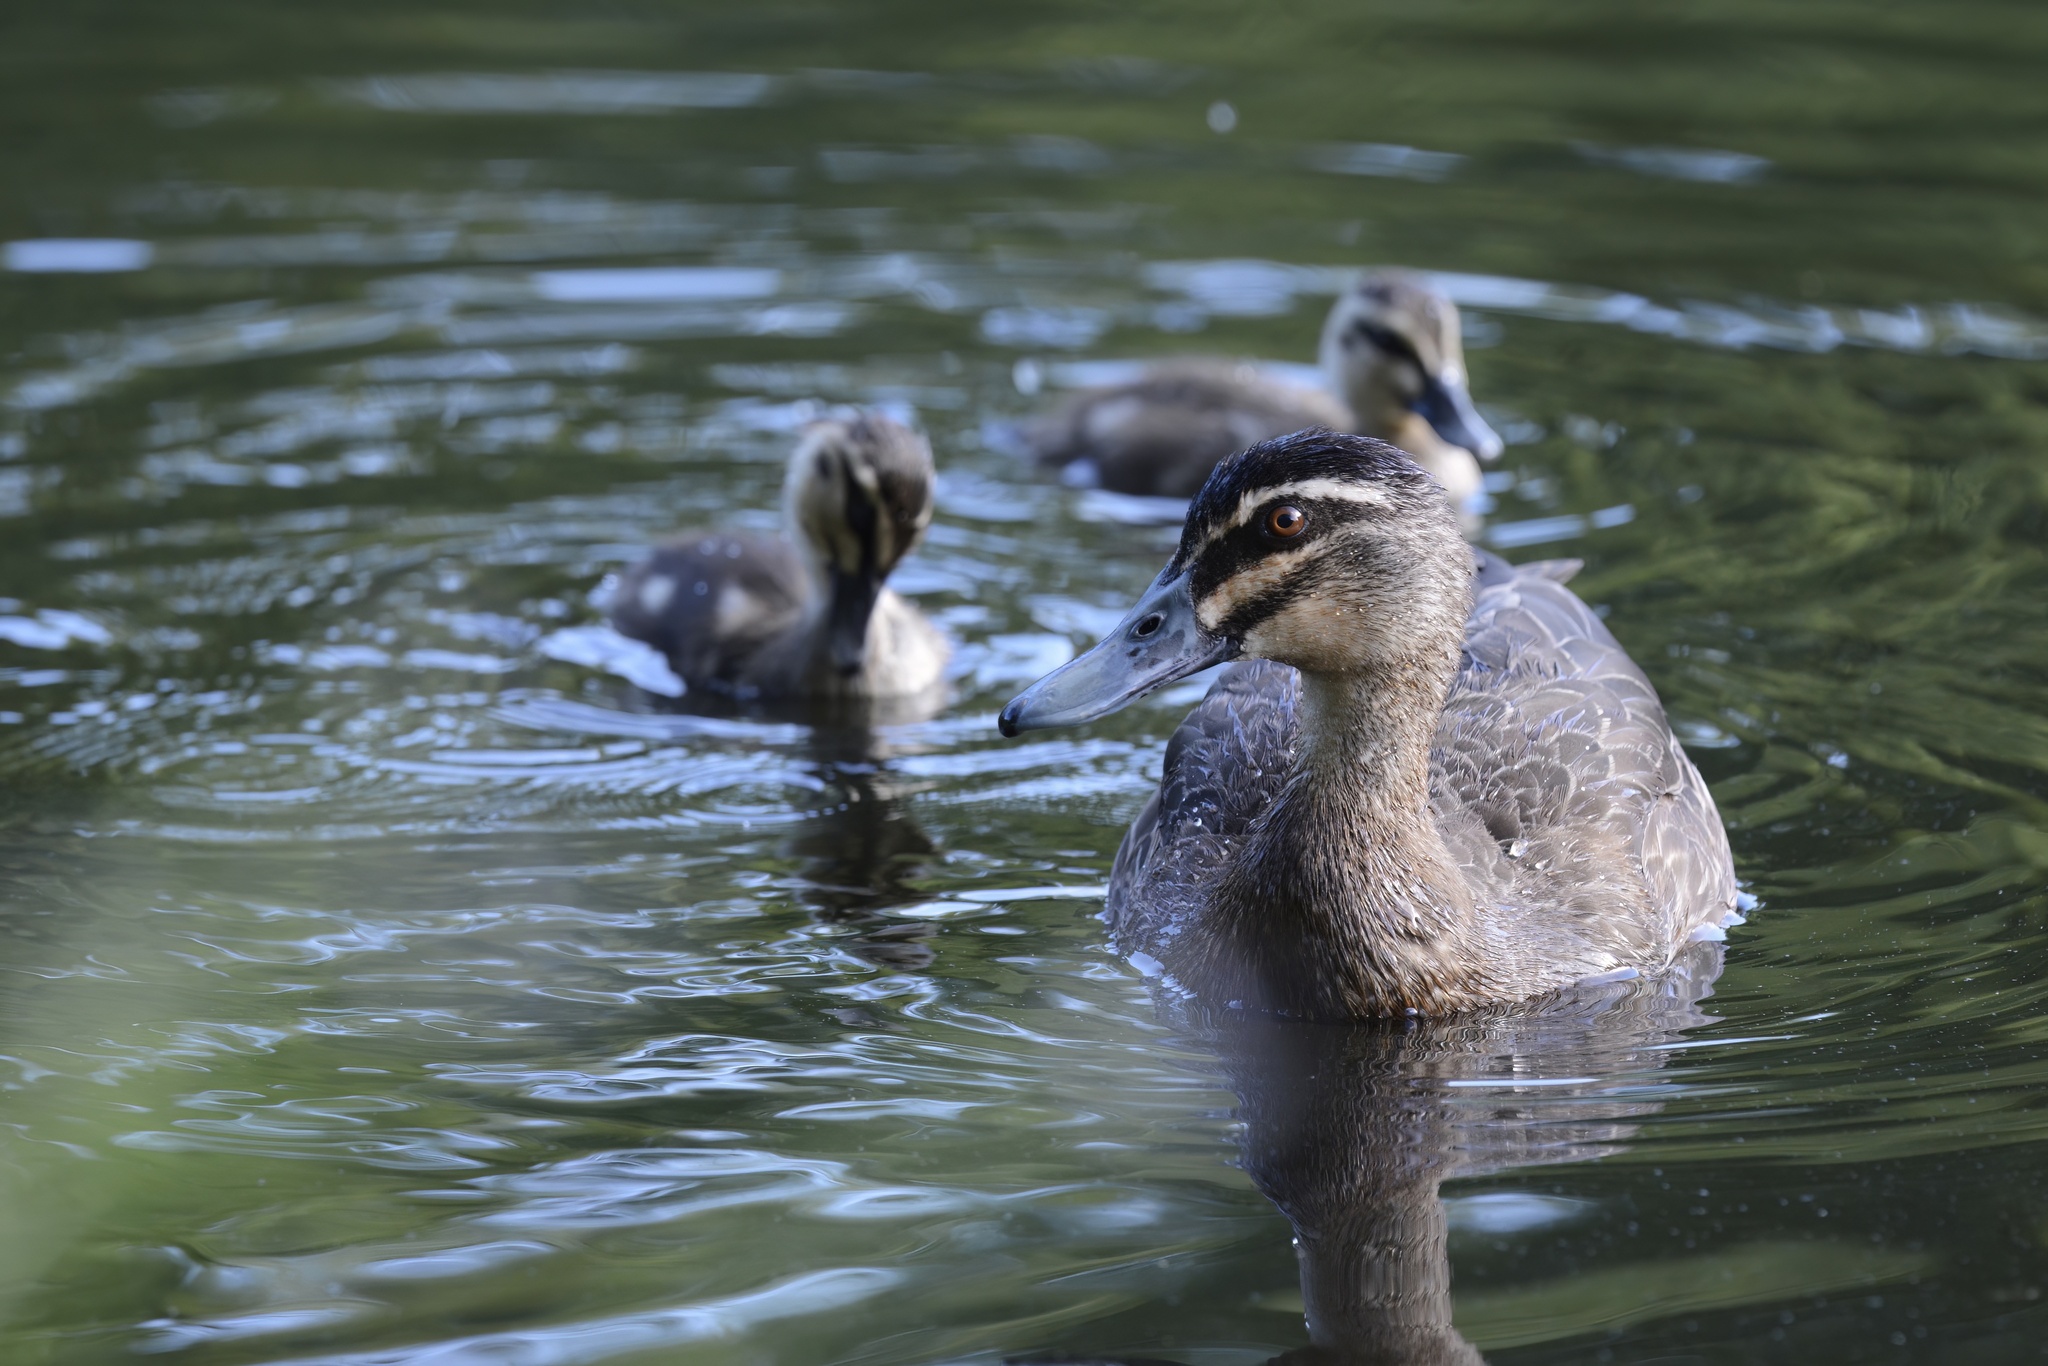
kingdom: Animalia
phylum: Chordata
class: Aves
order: Anseriformes
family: Anatidae
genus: Anas
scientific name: Anas superciliosa
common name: Pacific black duck
